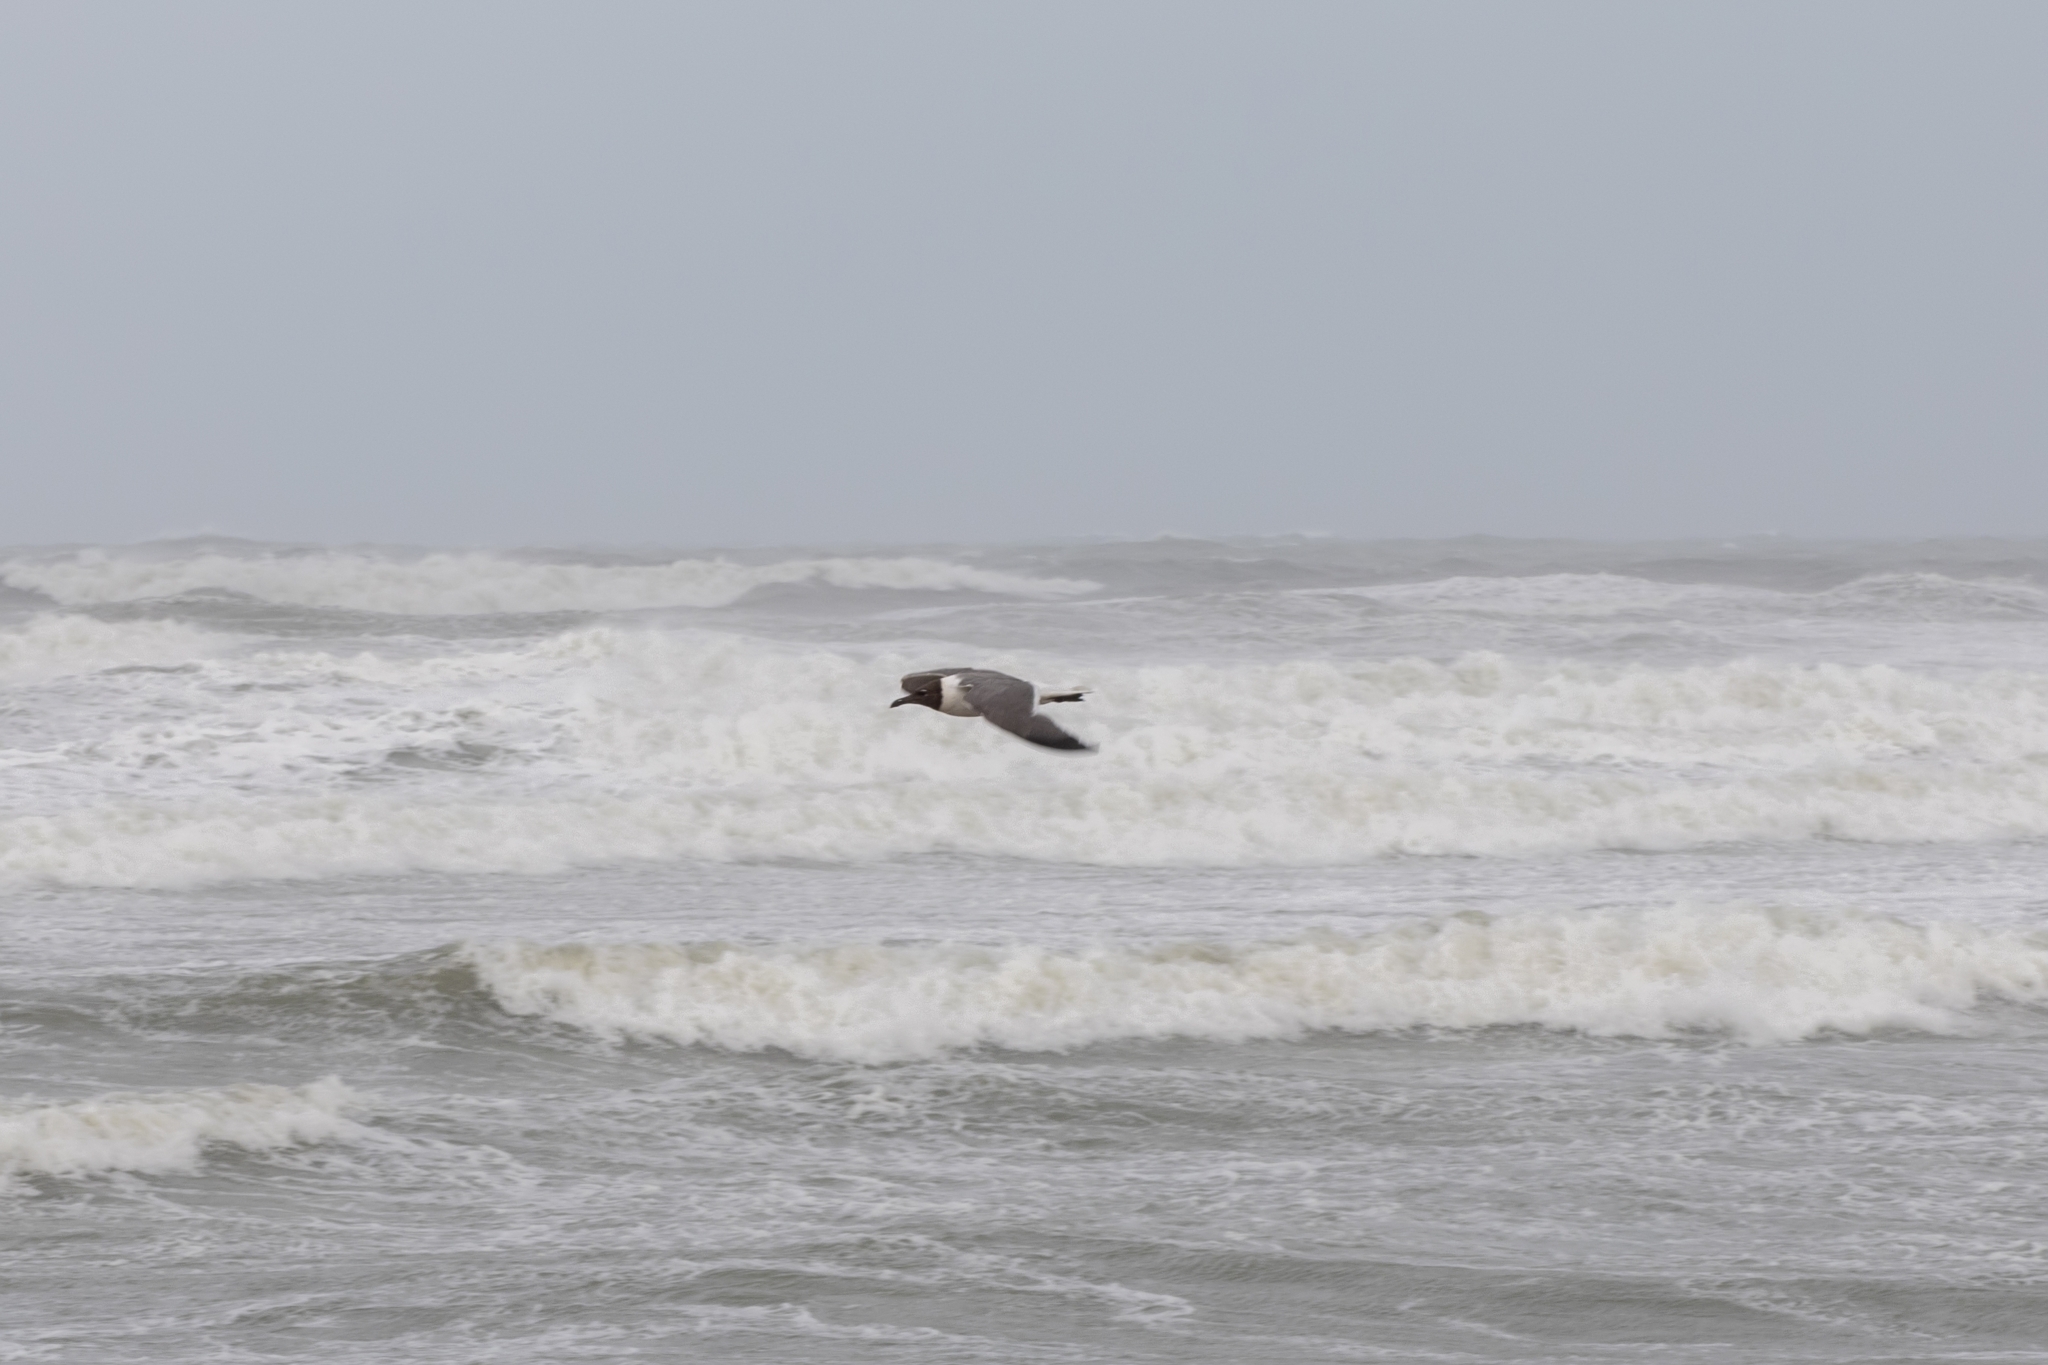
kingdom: Animalia
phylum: Chordata
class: Aves
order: Charadriiformes
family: Laridae
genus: Leucophaeus
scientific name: Leucophaeus atricilla
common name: Laughing gull
